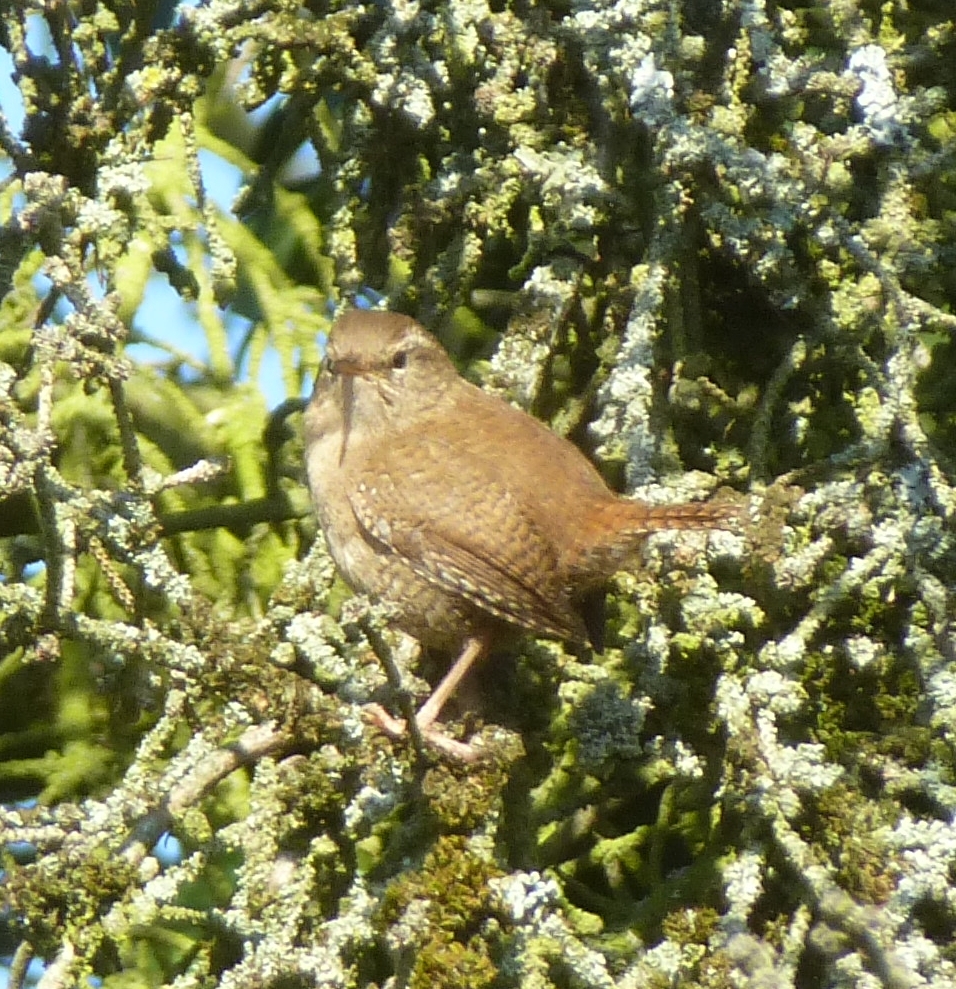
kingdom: Animalia
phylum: Chordata
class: Aves
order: Passeriformes
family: Troglodytidae
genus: Troglodytes
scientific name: Troglodytes troglodytes
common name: Eurasian wren
